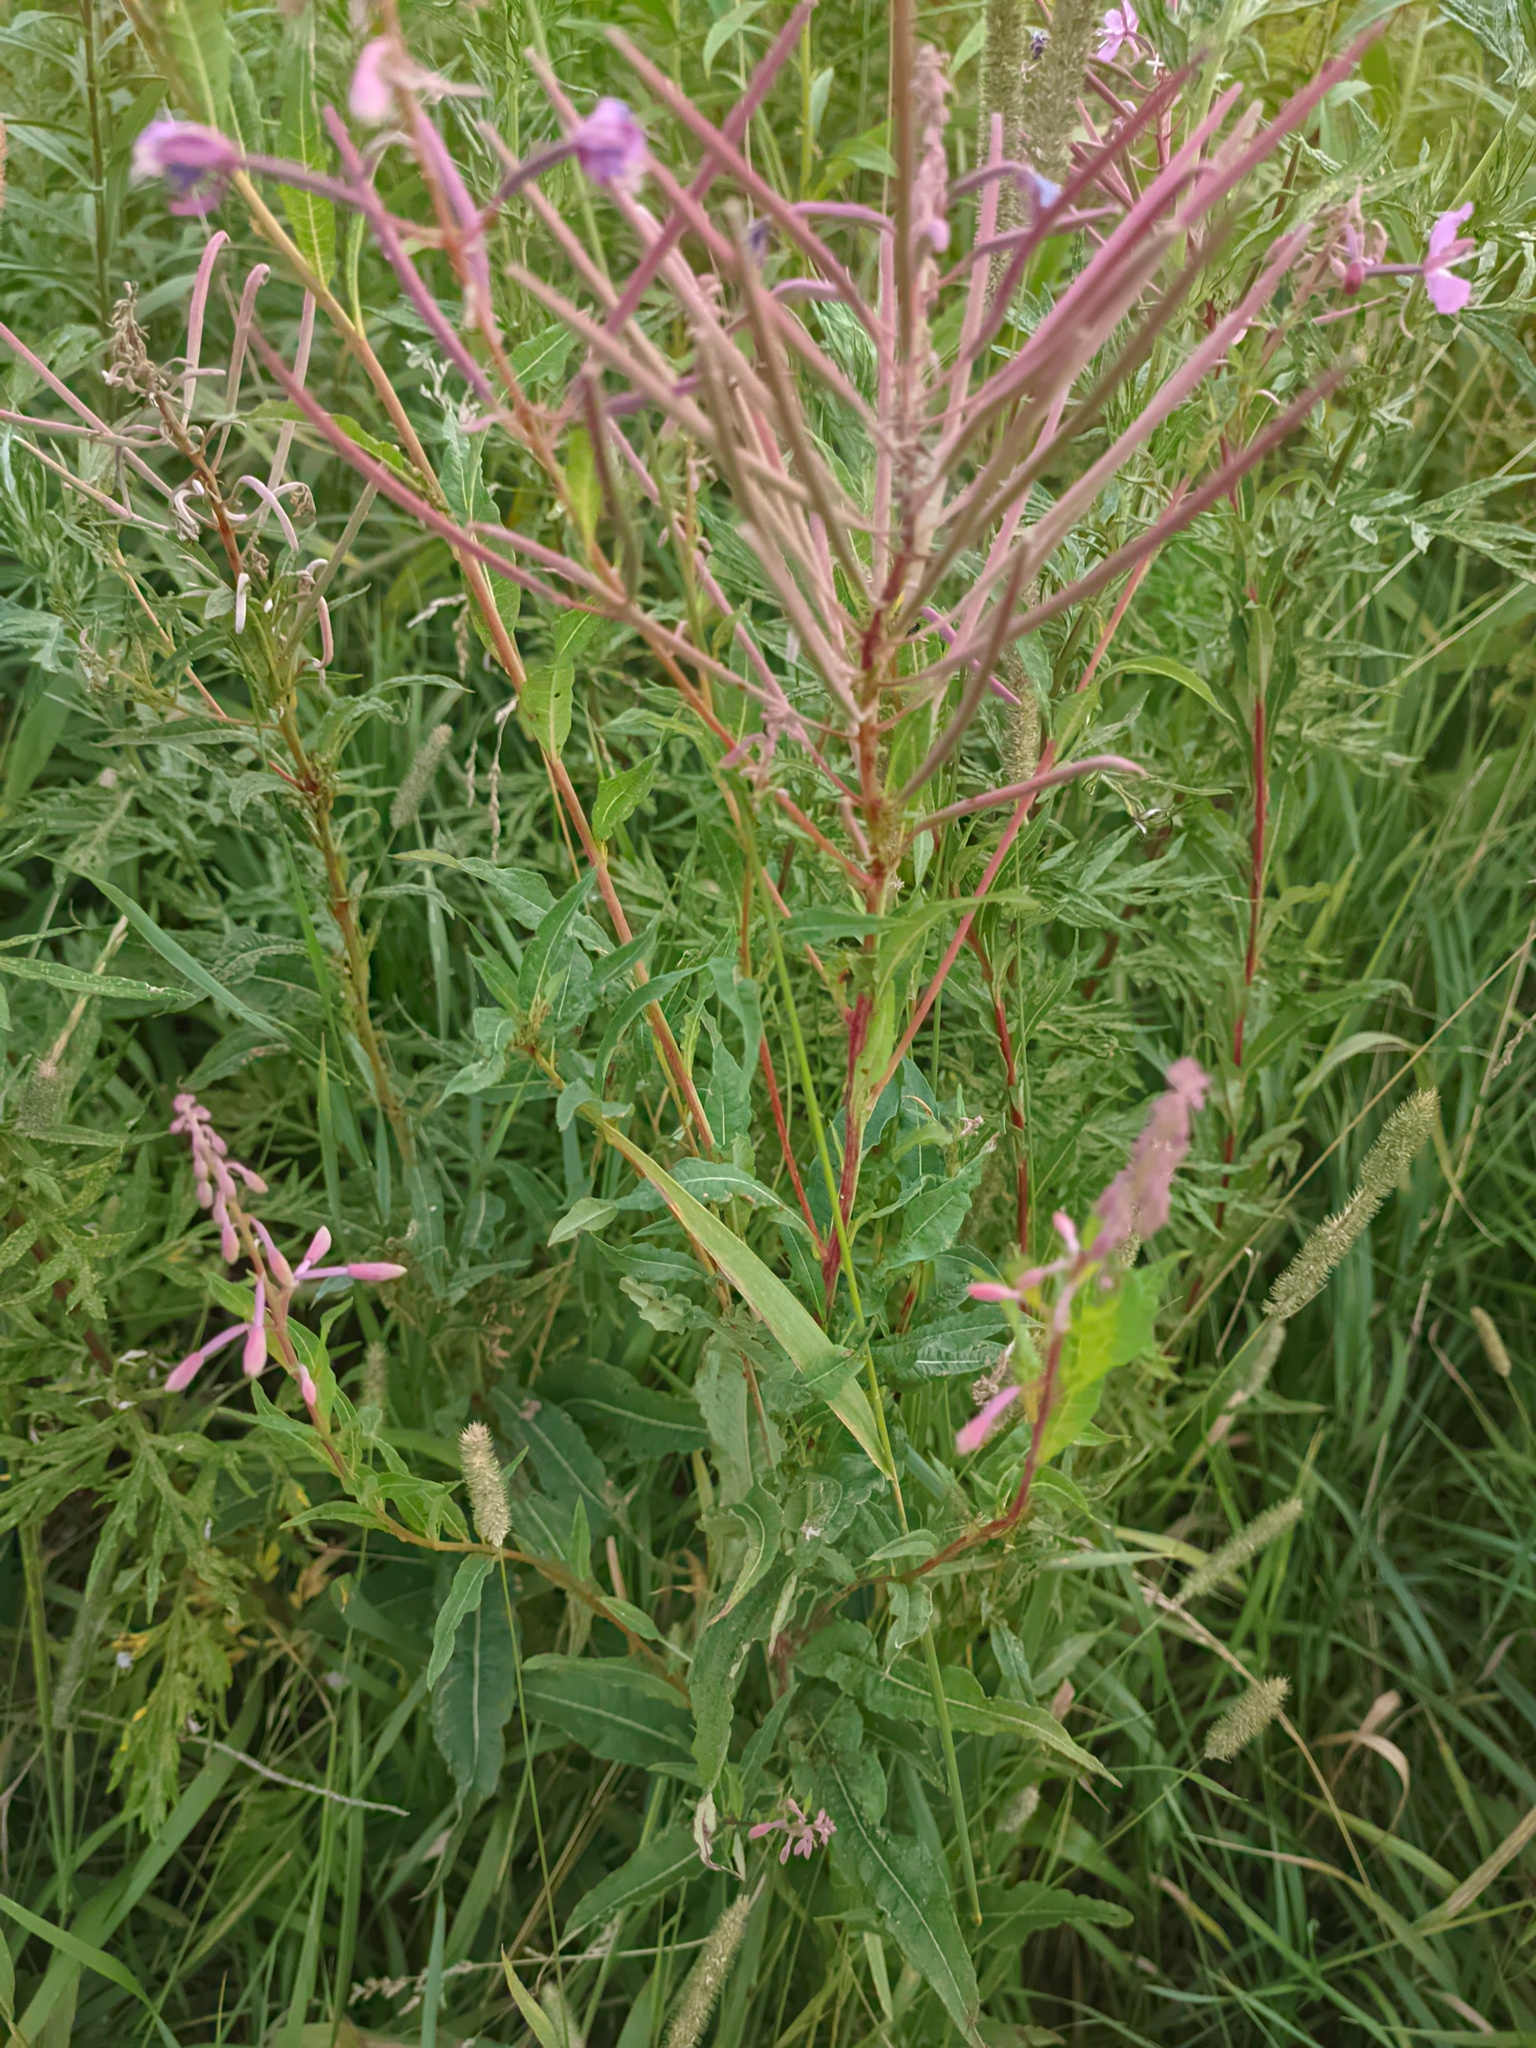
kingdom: Plantae
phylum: Tracheophyta
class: Magnoliopsida
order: Myrtales
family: Onagraceae
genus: Chamaenerion
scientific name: Chamaenerion angustifolium
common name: Fireweed
